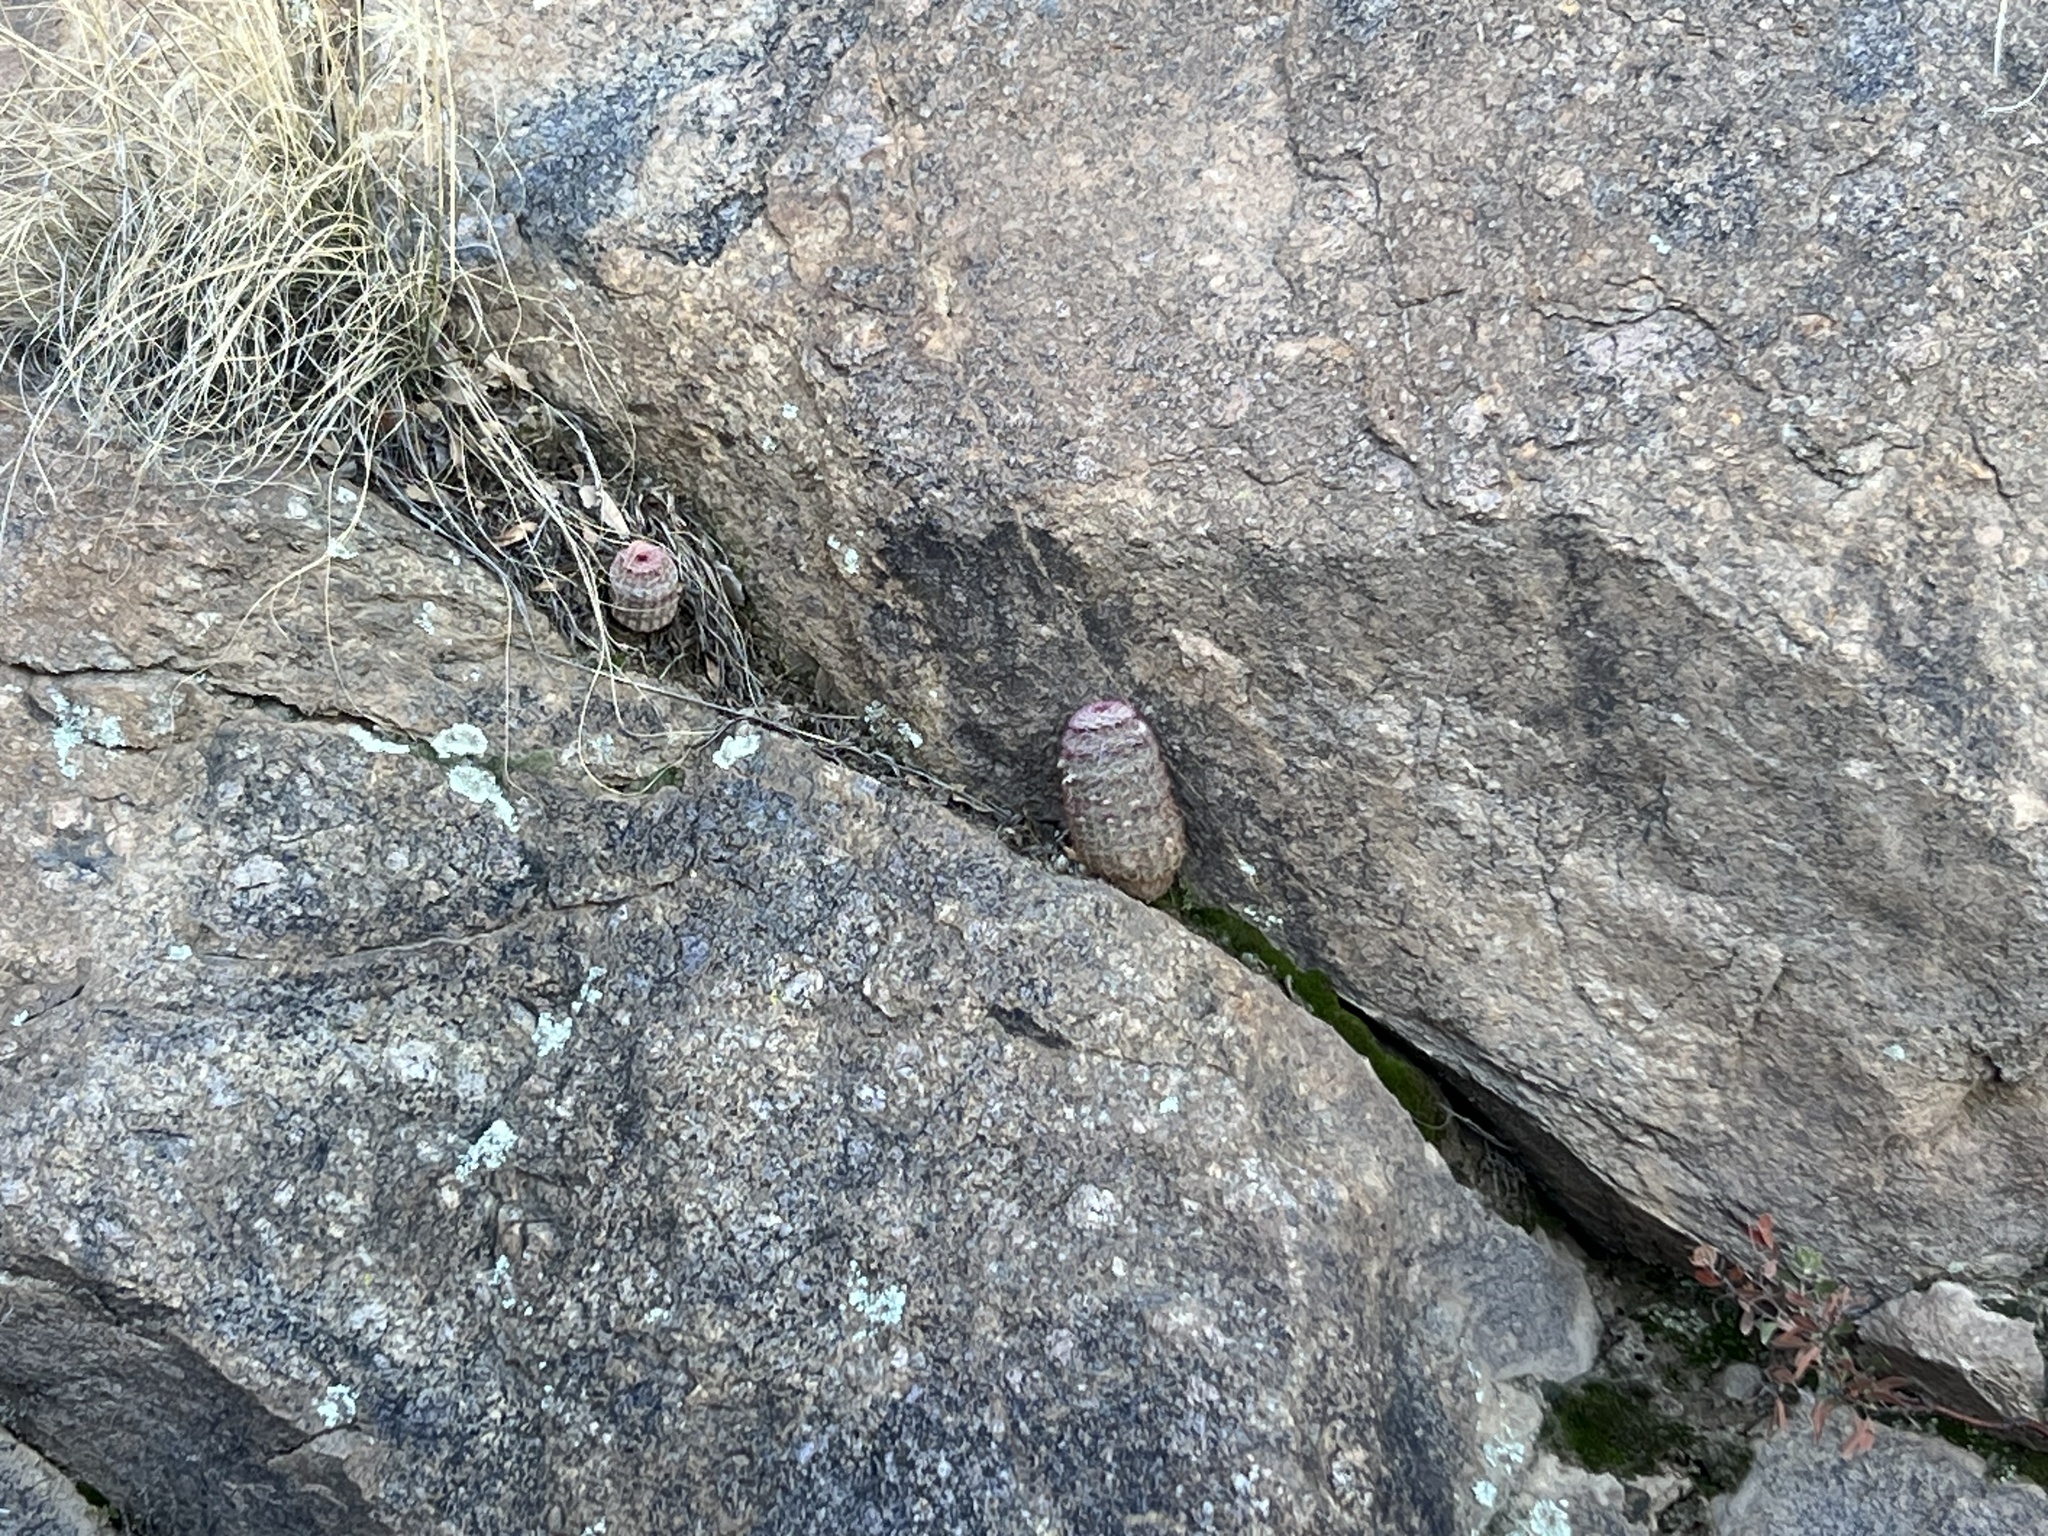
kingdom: Plantae
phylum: Tracheophyta
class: Magnoliopsida
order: Caryophyllales
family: Cactaceae
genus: Echinocereus
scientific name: Echinocereus rigidissimus
